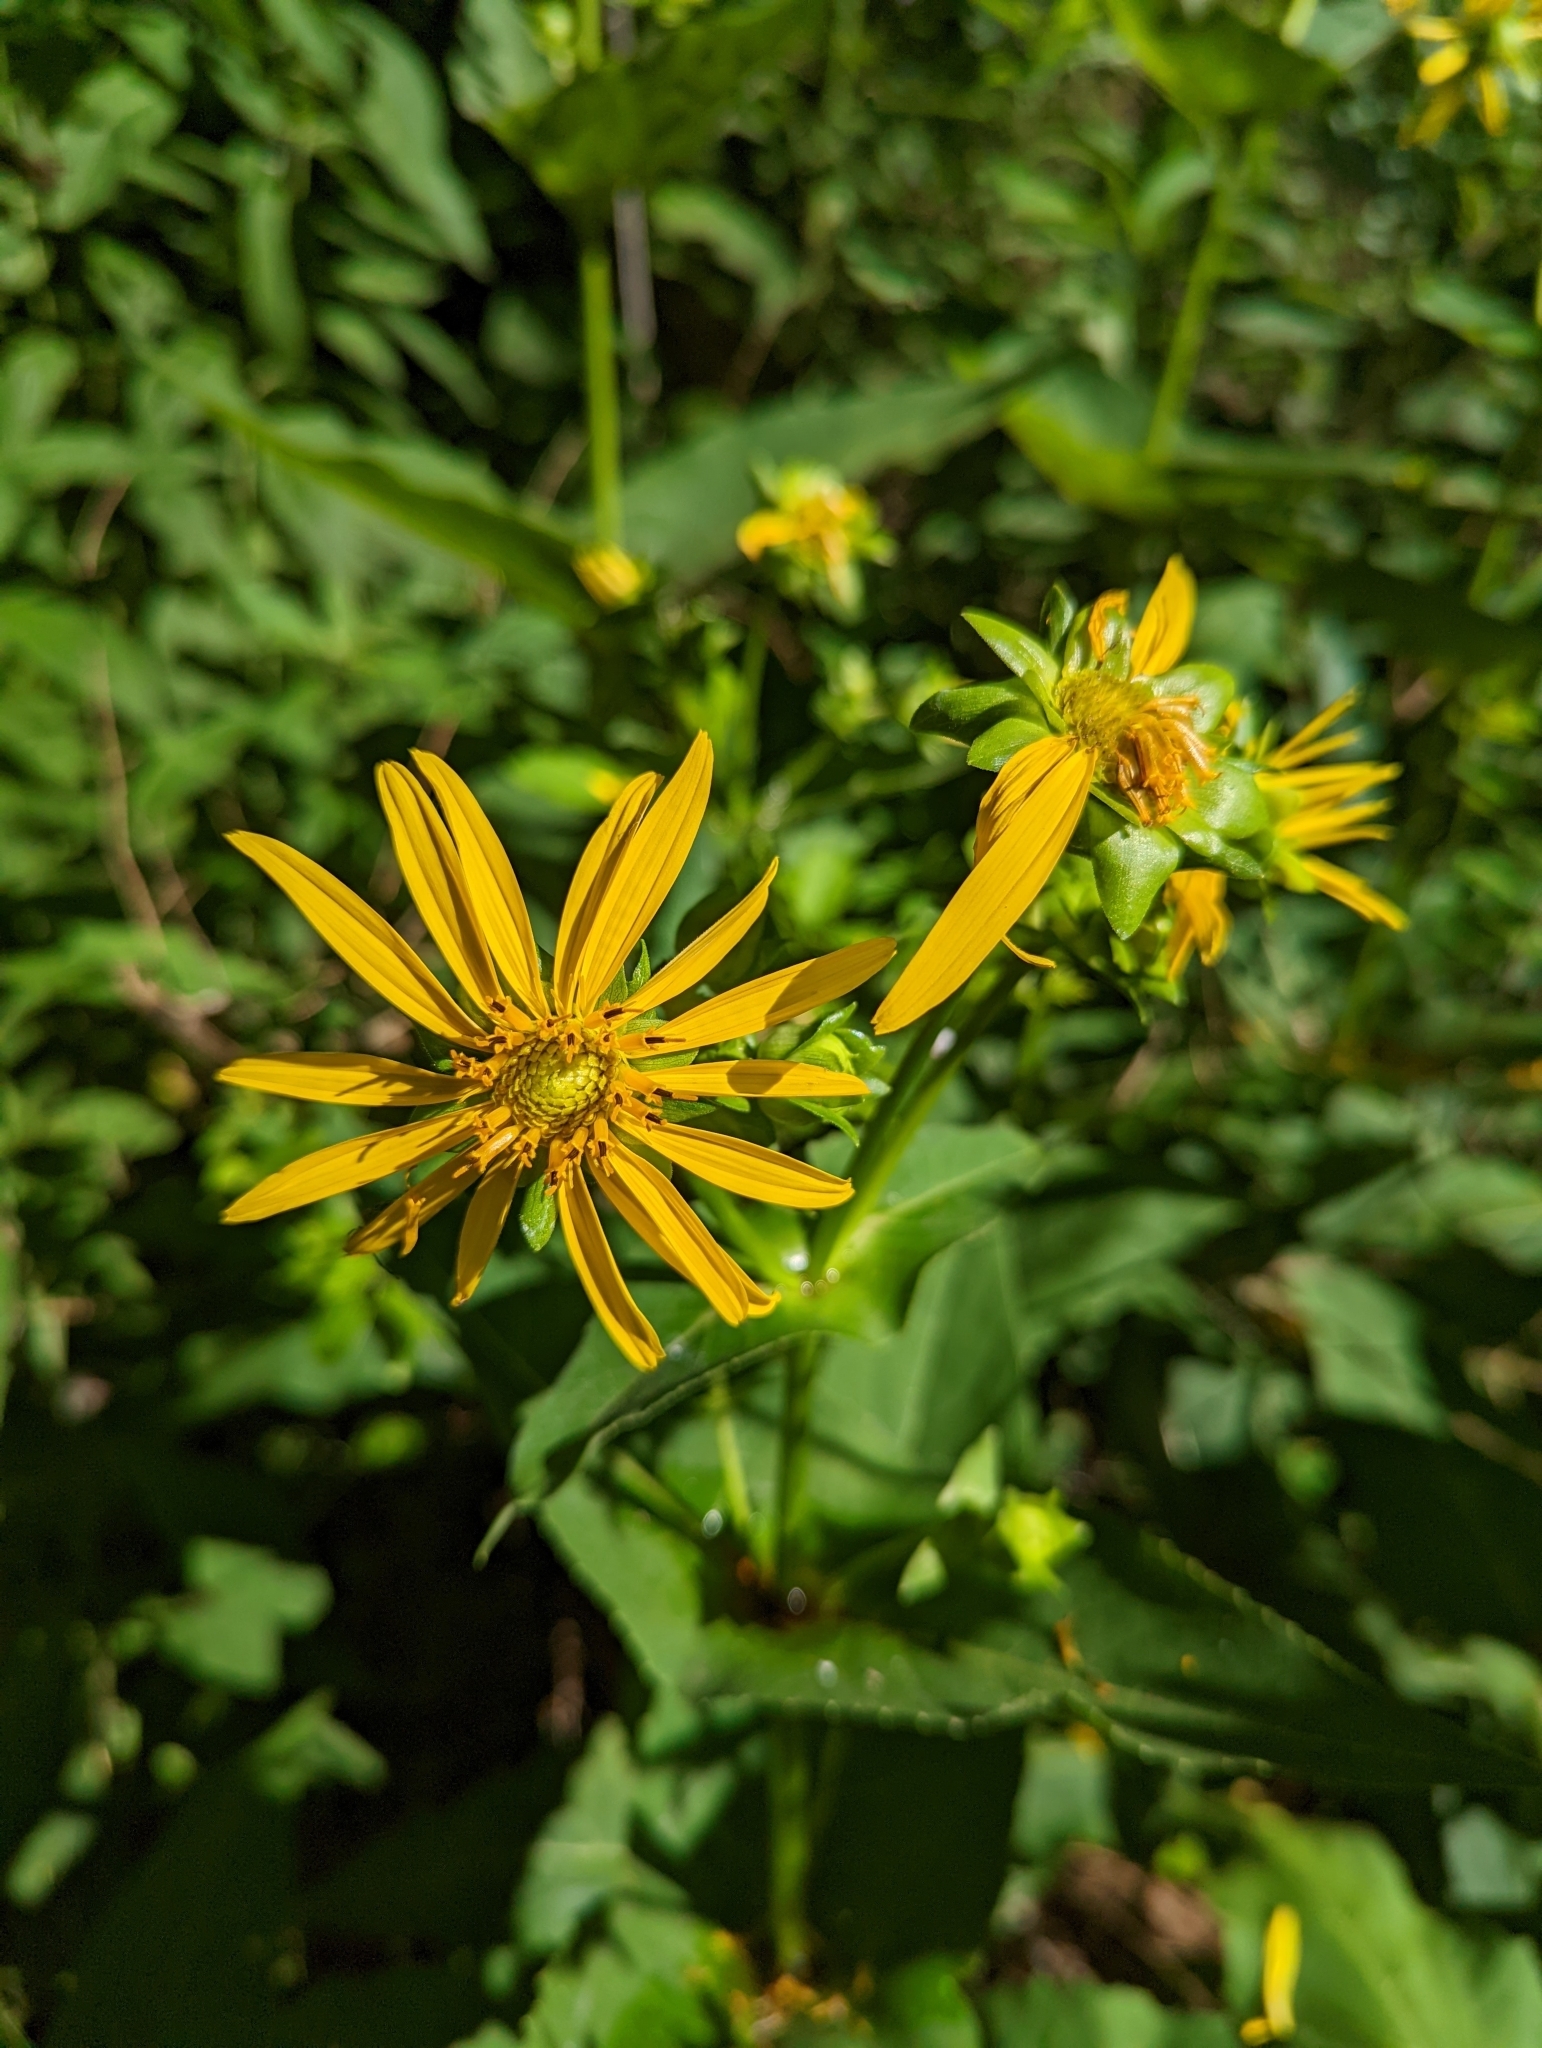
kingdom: Plantae
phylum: Tracheophyta
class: Magnoliopsida
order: Asterales
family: Asteraceae
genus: Silphium
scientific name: Silphium perfoliatum
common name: Cup-plant
